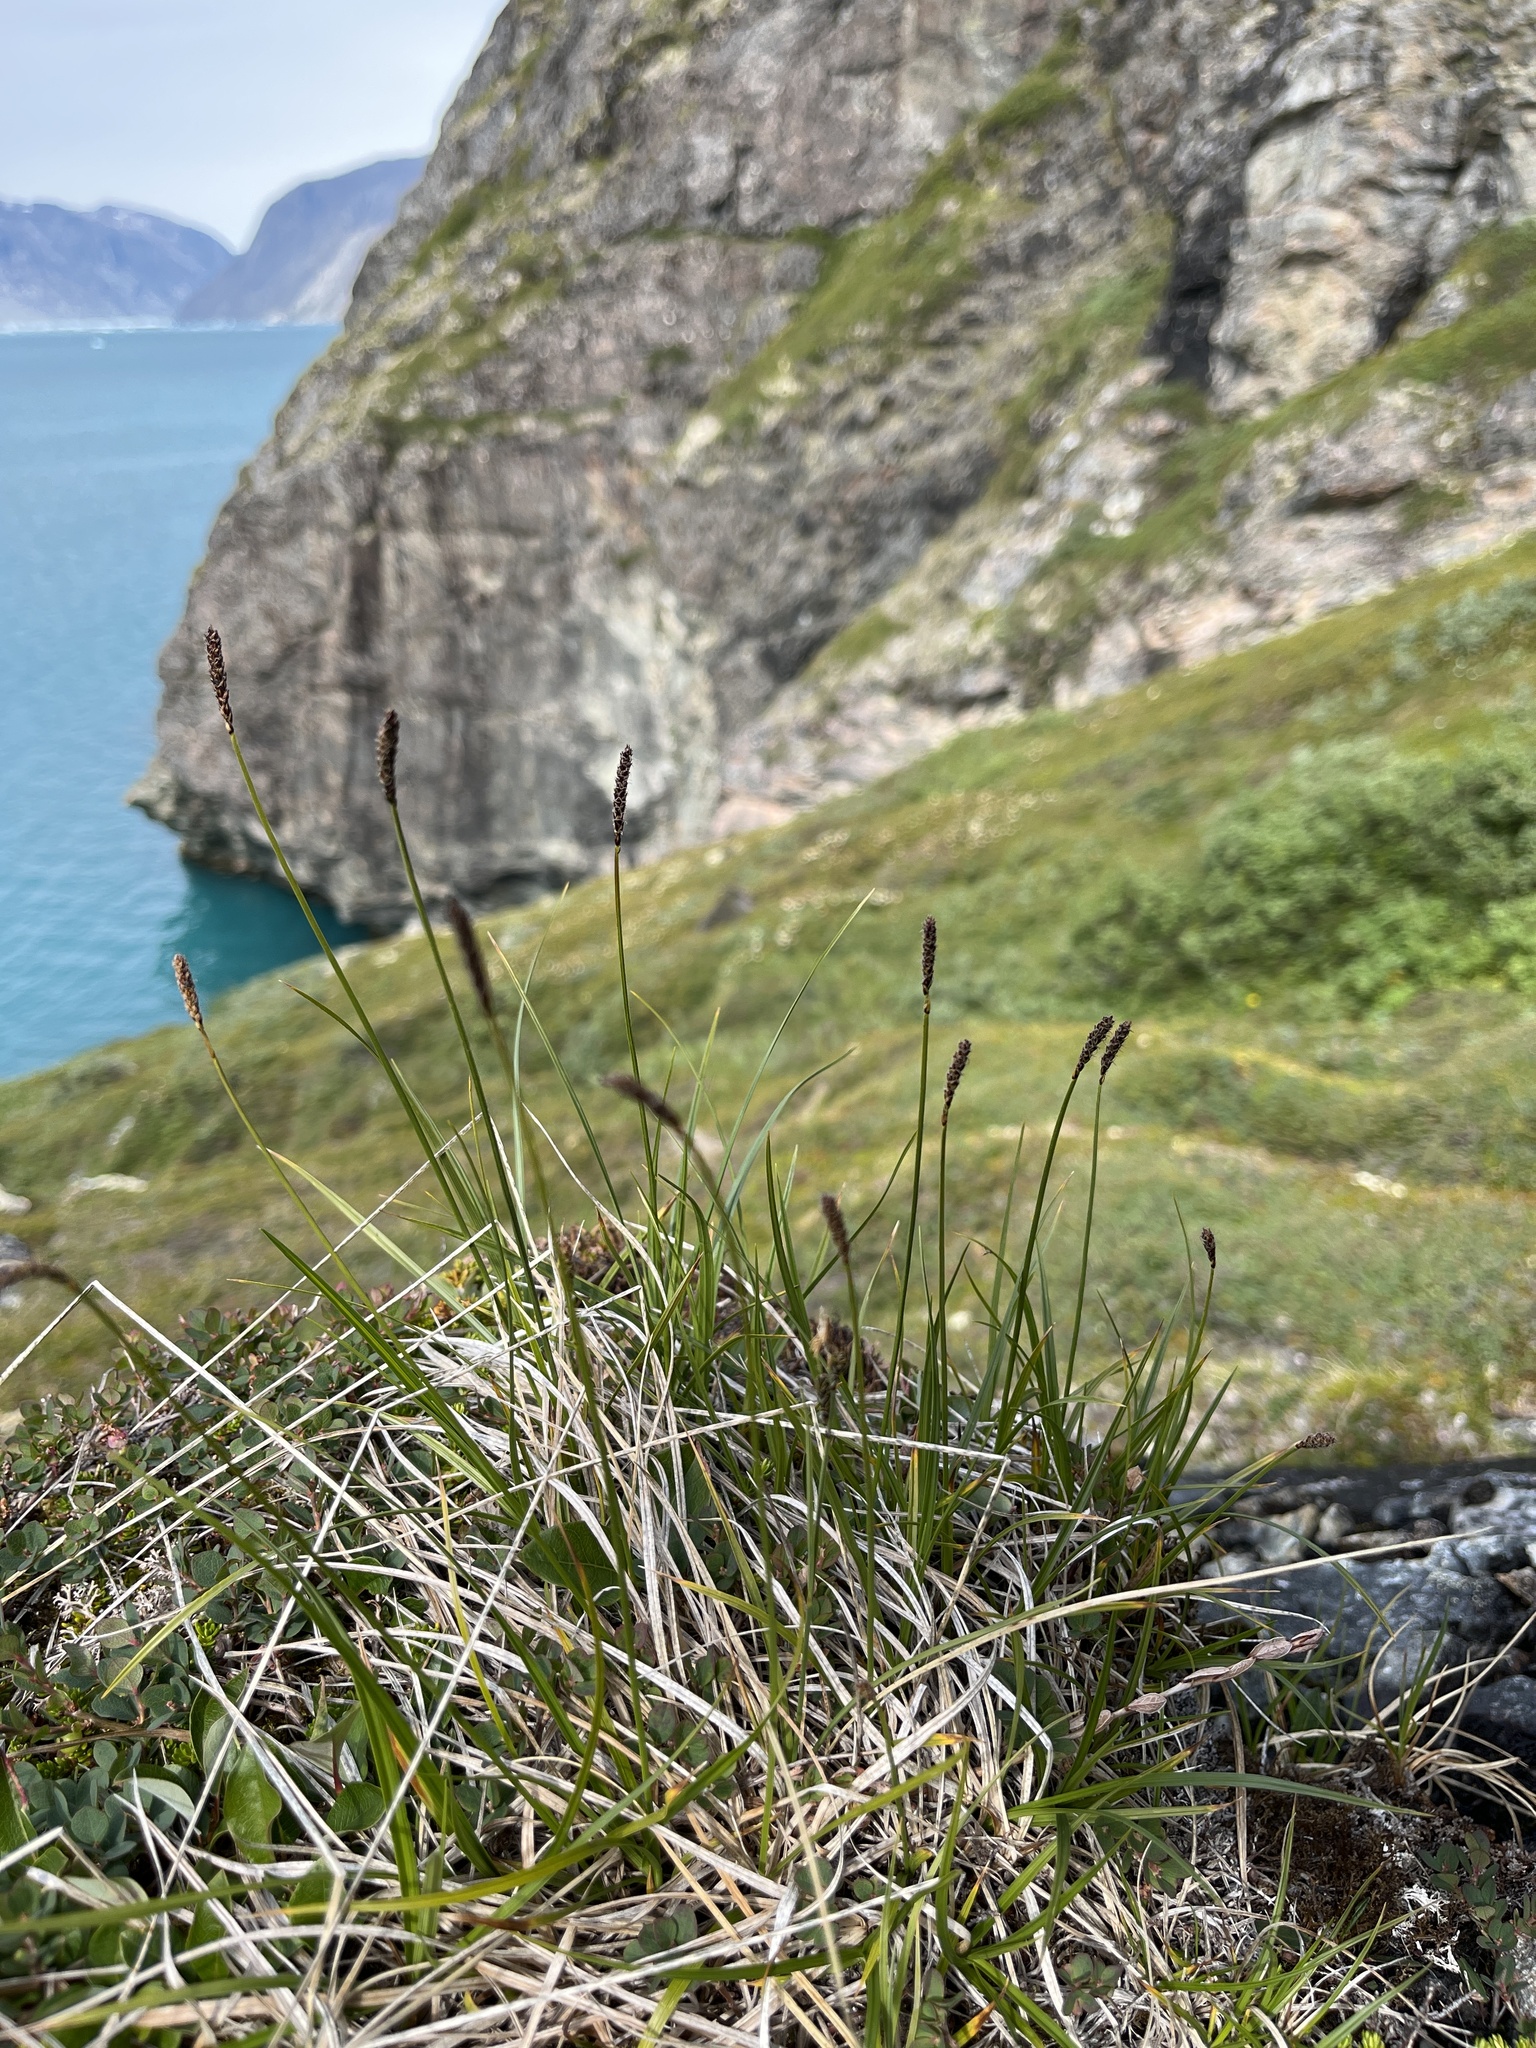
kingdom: Plantae
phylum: Tracheophyta
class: Liliopsida
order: Poales
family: Cyperaceae
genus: Carex
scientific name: Carex scirpoidea
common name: Canada single-spike sedge
